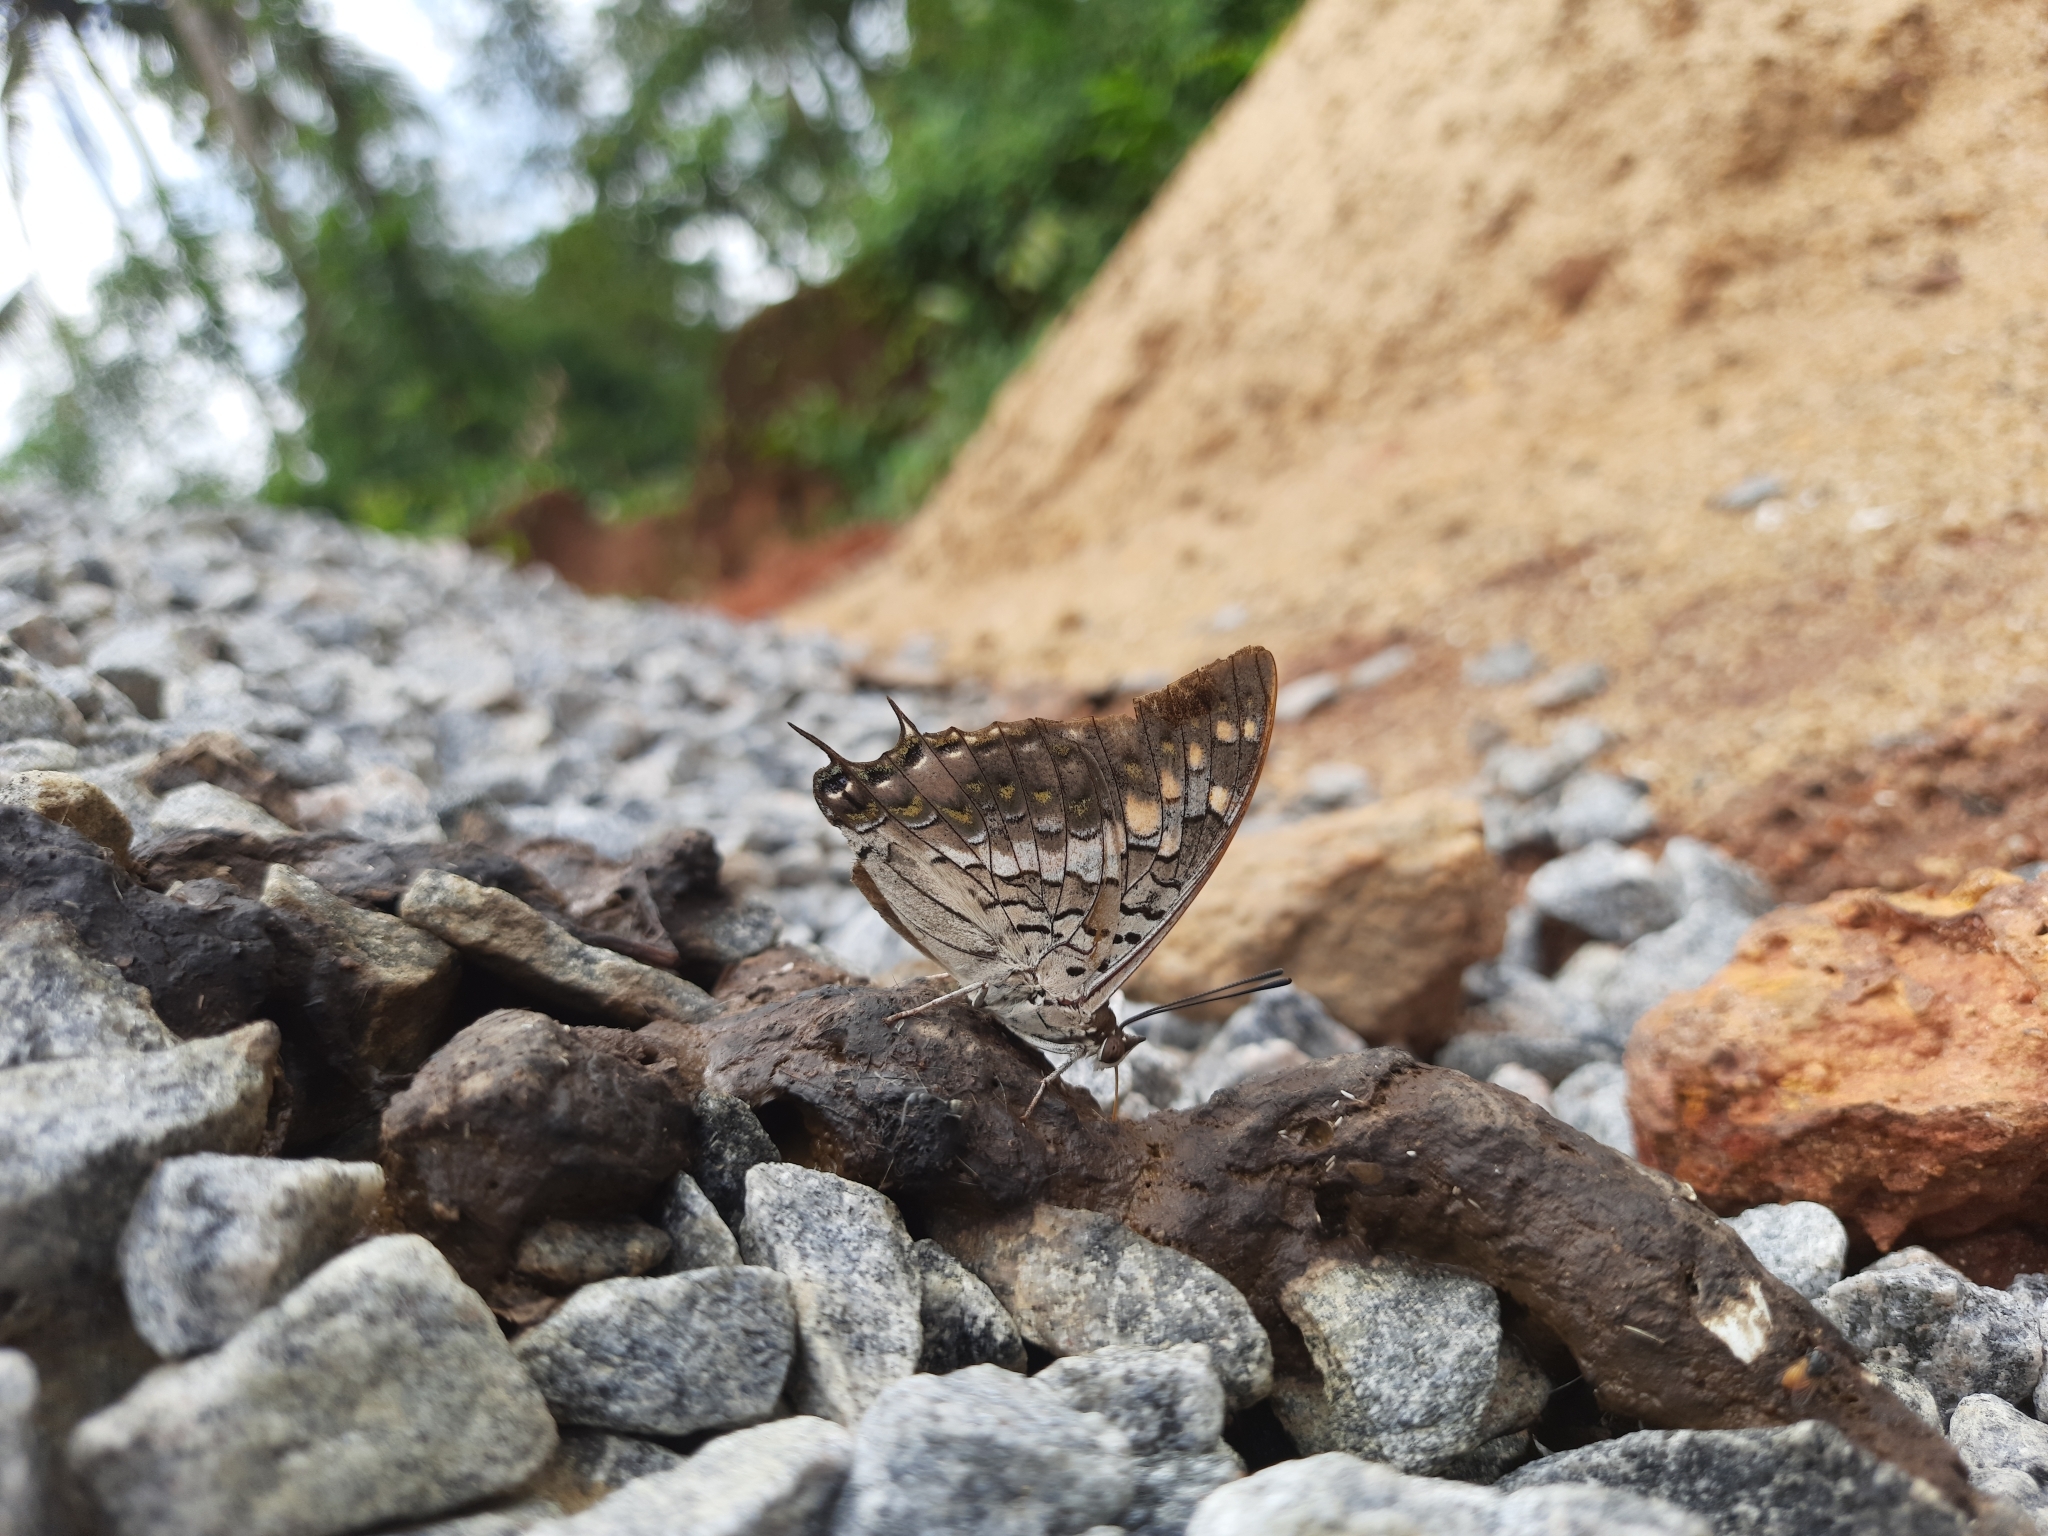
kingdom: Animalia
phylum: Arthropoda
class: Insecta
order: Lepidoptera
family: Nymphalidae
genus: Charaxes
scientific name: Charaxes solon
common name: Black rajah
